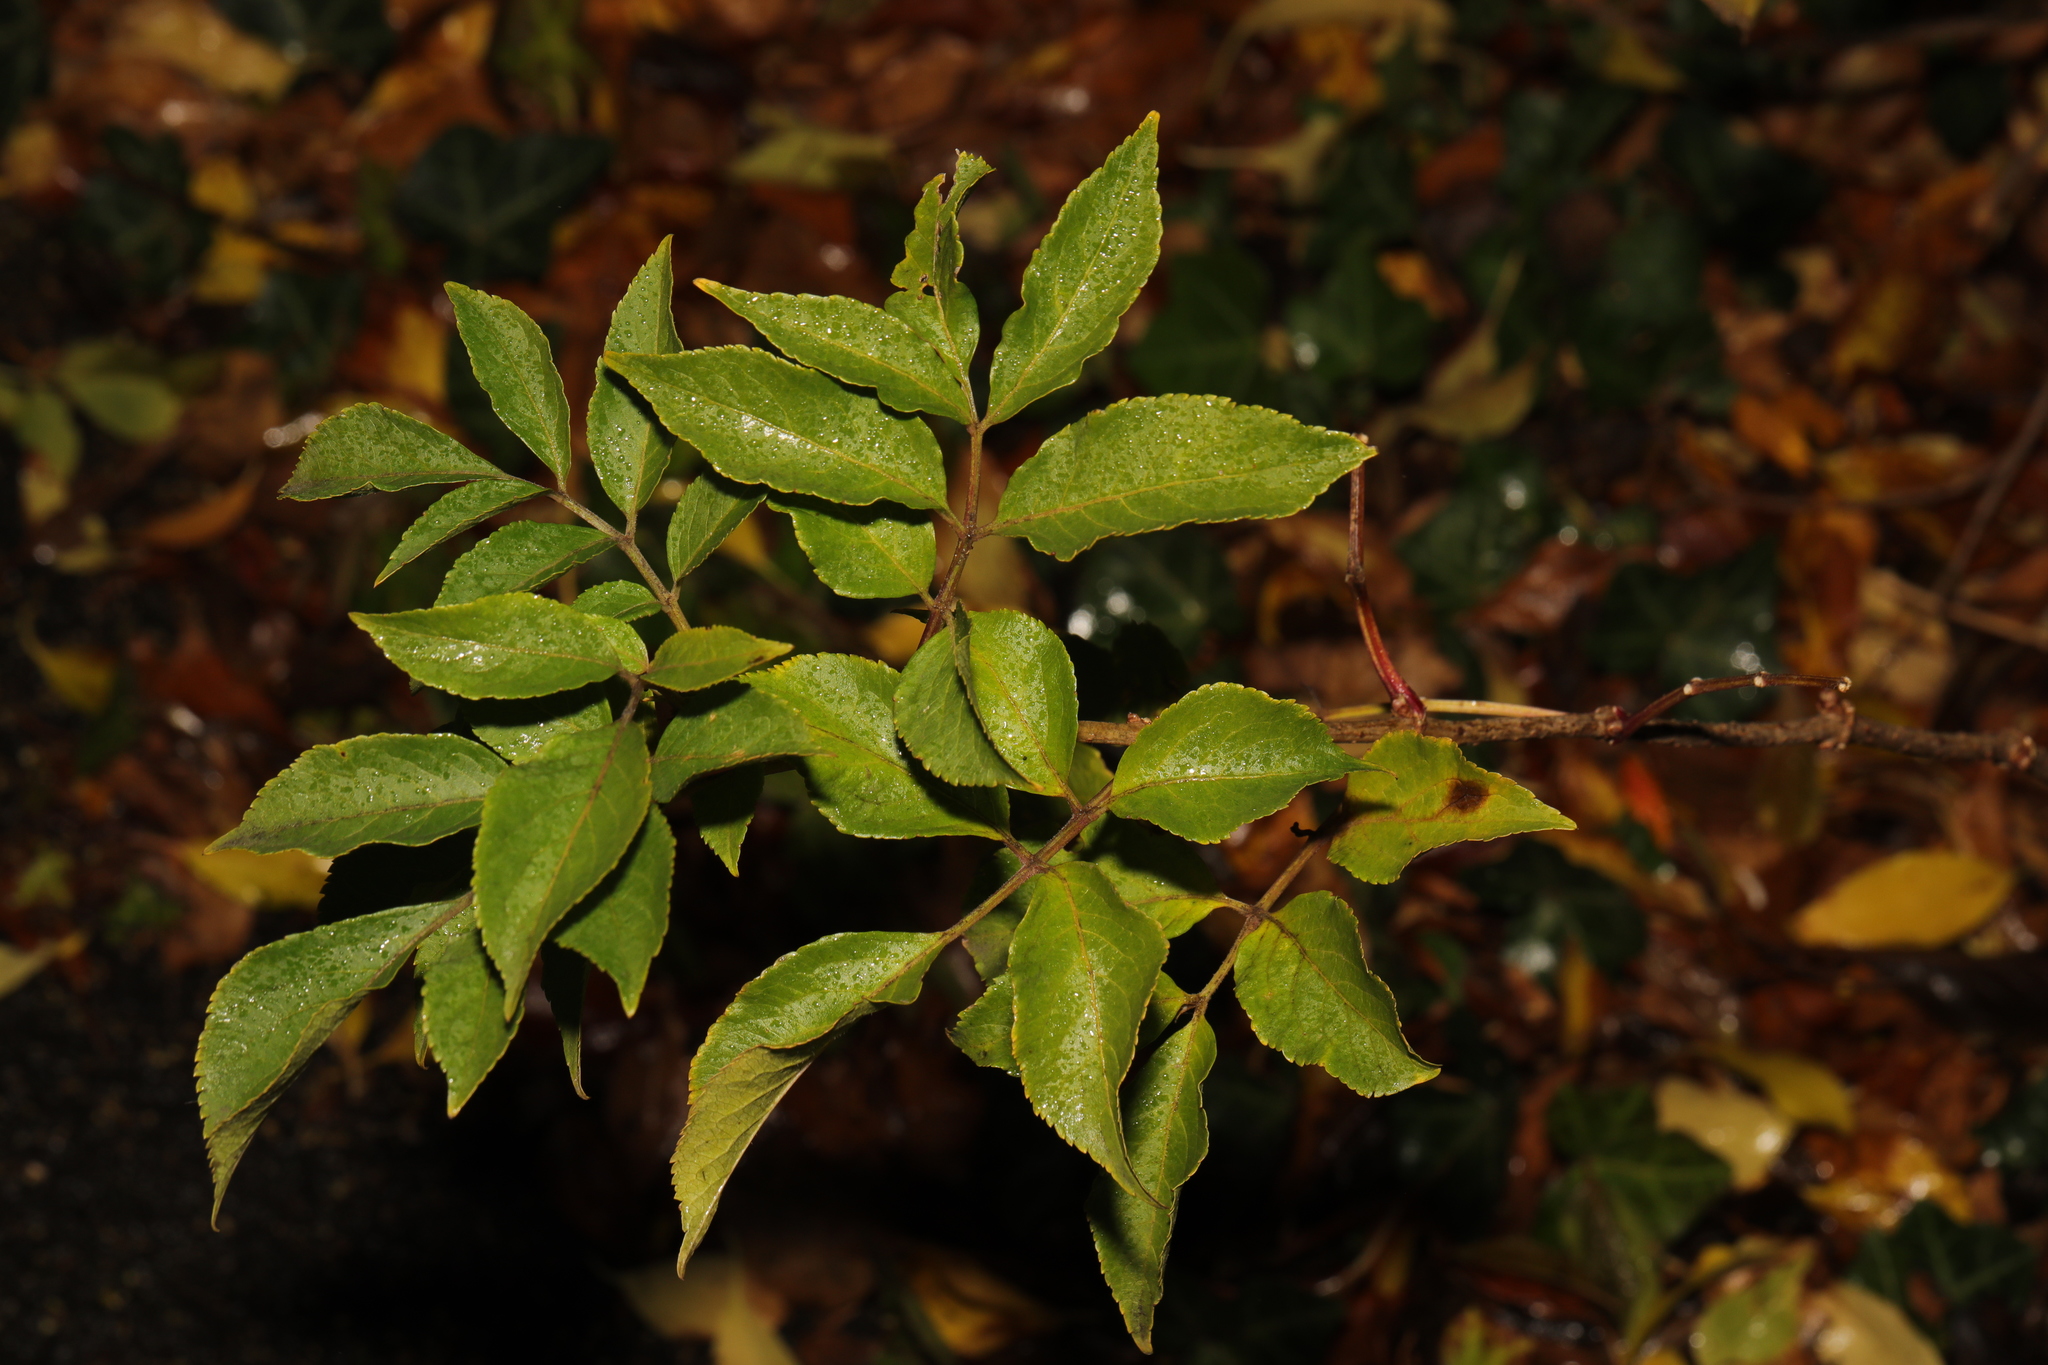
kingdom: Plantae
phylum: Tracheophyta
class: Magnoliopsida
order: Dipsacales
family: Viburnaceae
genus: Sambucus
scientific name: Sambucus nigra
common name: Elder
